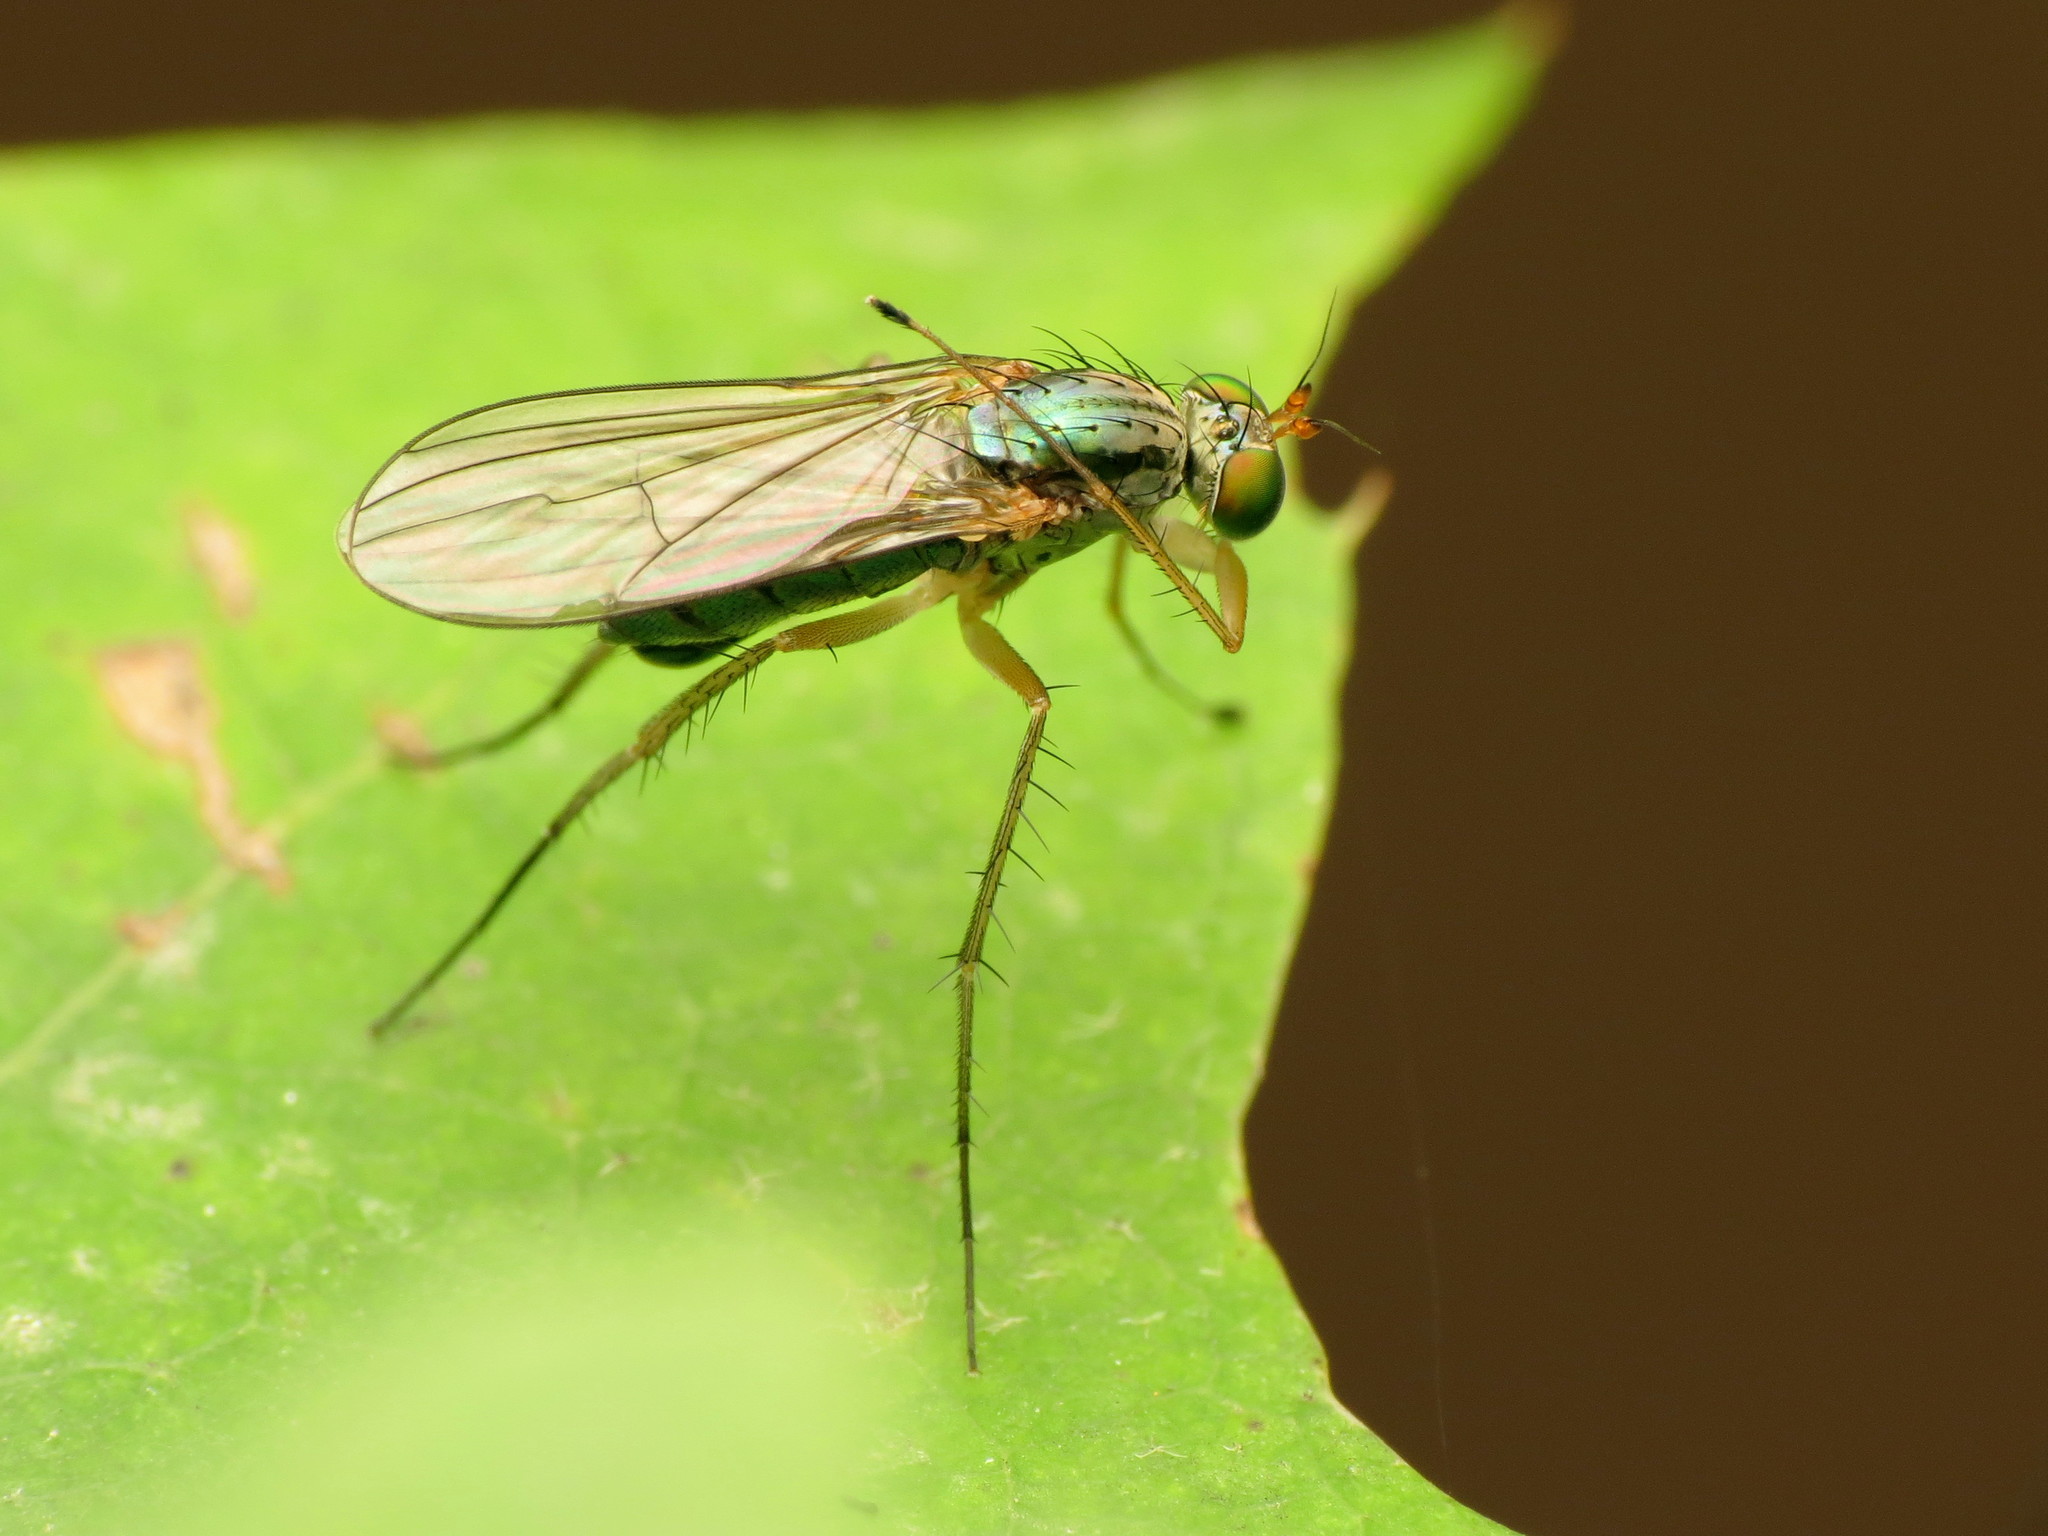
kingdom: Animalia
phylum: Arthropoda
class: Insecta
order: Diptera
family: Dolichopodidae
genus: Dolichopus
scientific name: Dolichopus longipennis
